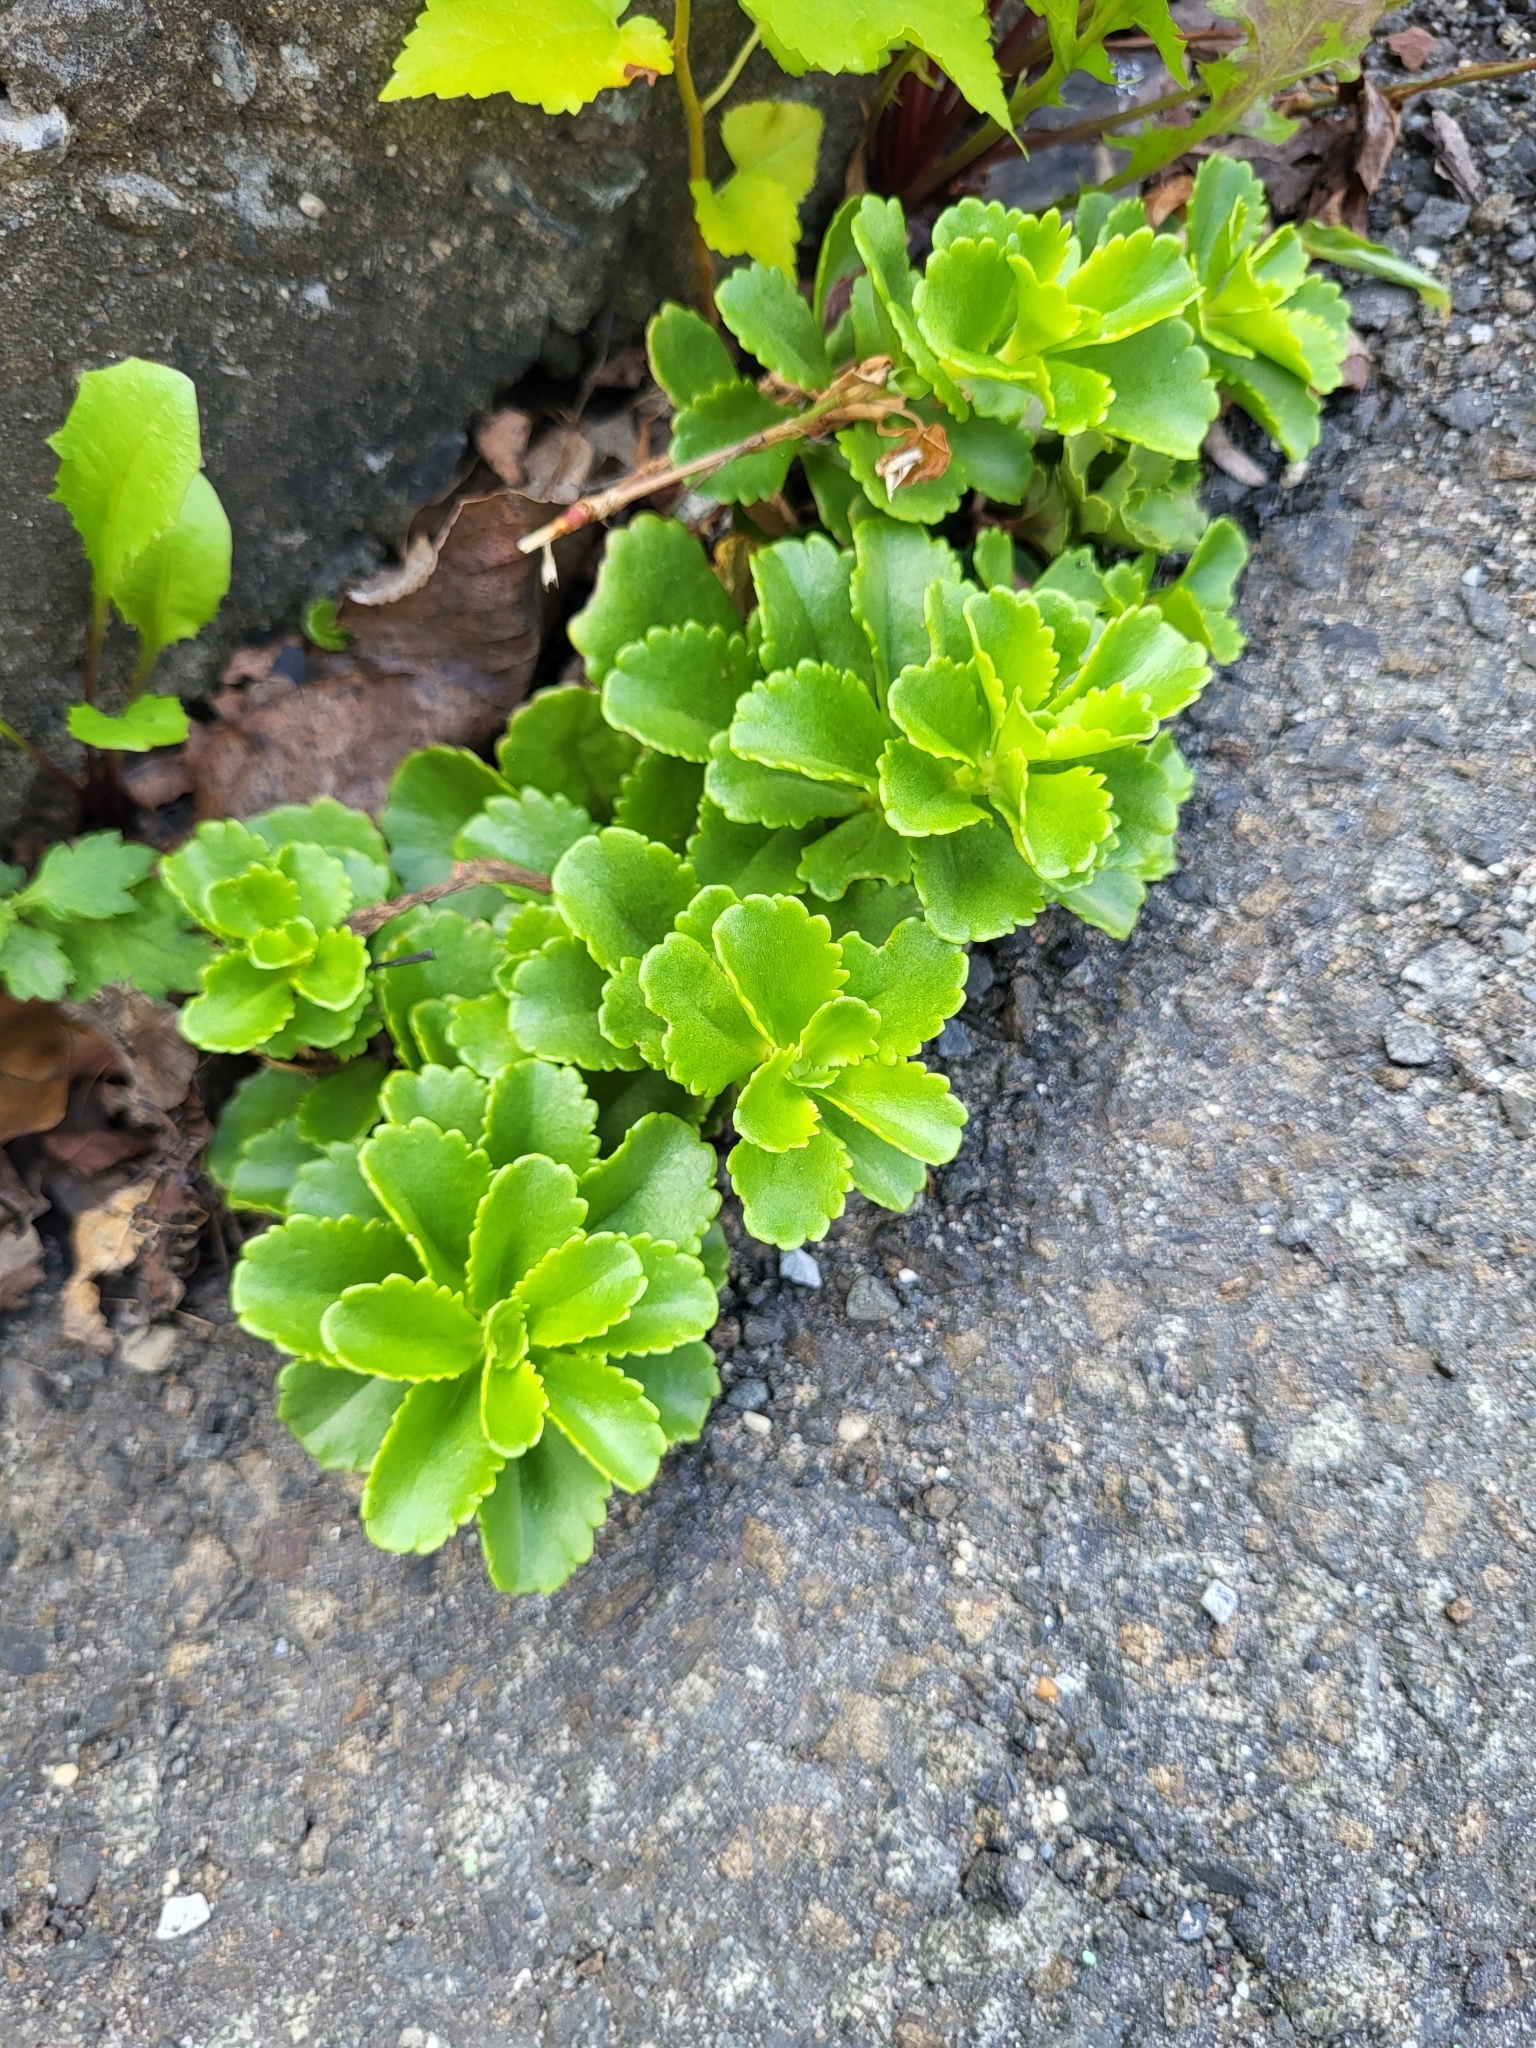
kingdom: Plantae
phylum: Tracheophyta
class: Magnoliopsida
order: Saxifragales
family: Crassulaceae
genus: Phedimus
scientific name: Phedimus ellacombeanus
